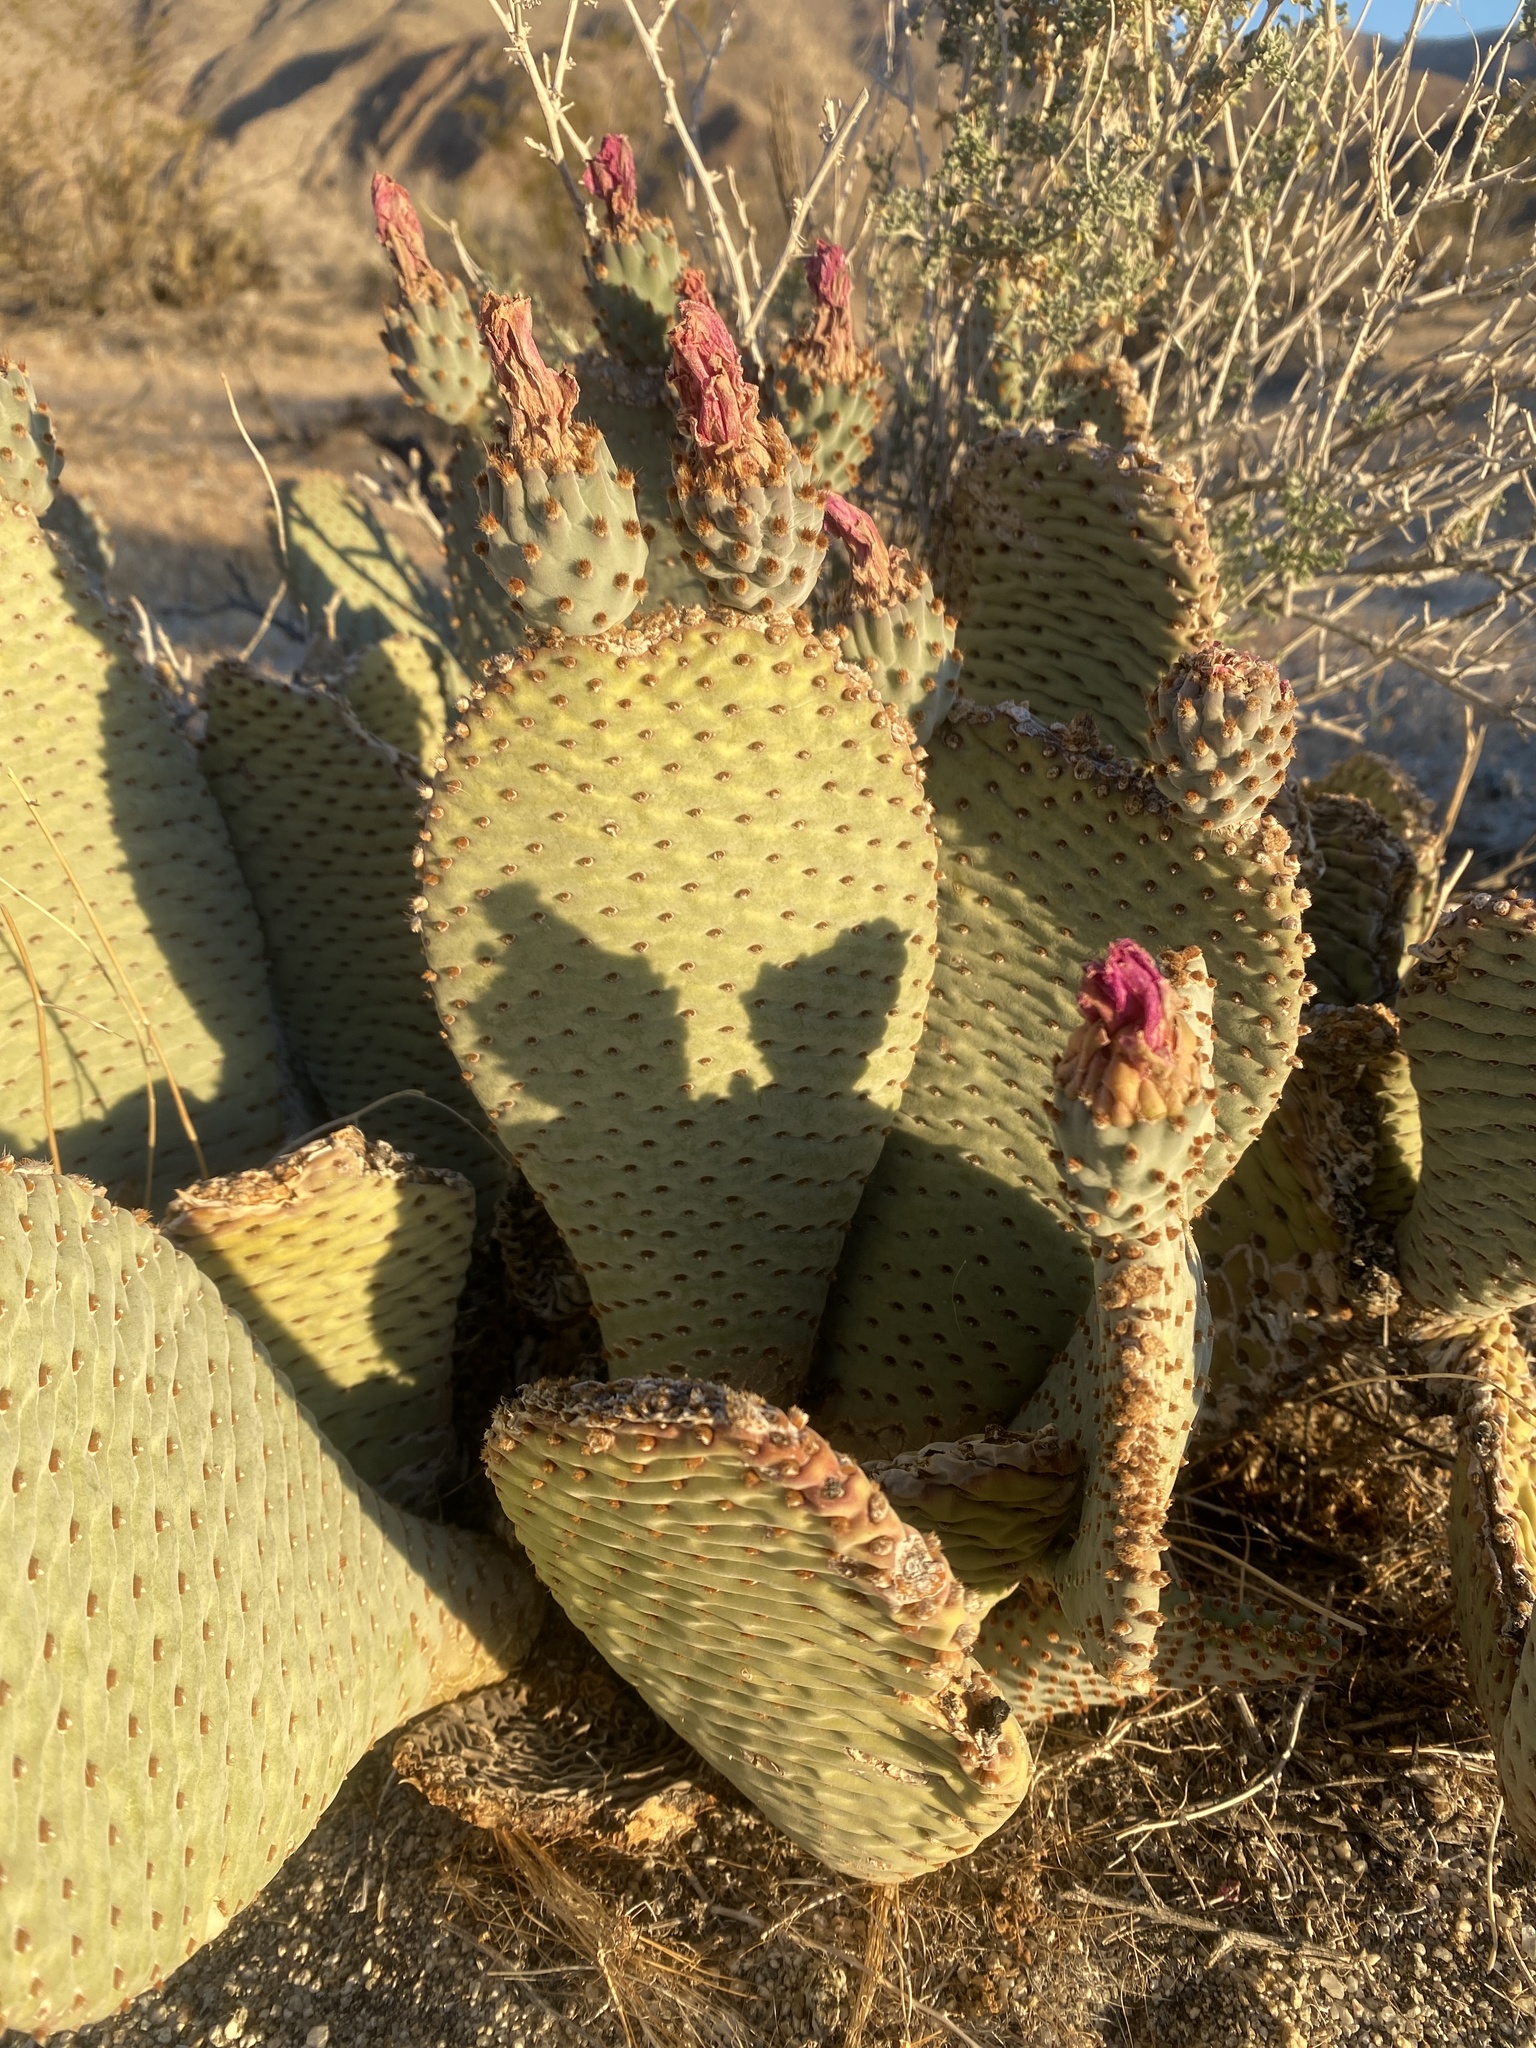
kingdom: Plantae
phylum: Tracheophyta
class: Magnoliopsida
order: Caryophyllales
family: Cactaceae
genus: Opuntia
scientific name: Opuntia basilaris
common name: Beavertail prickly-pear
